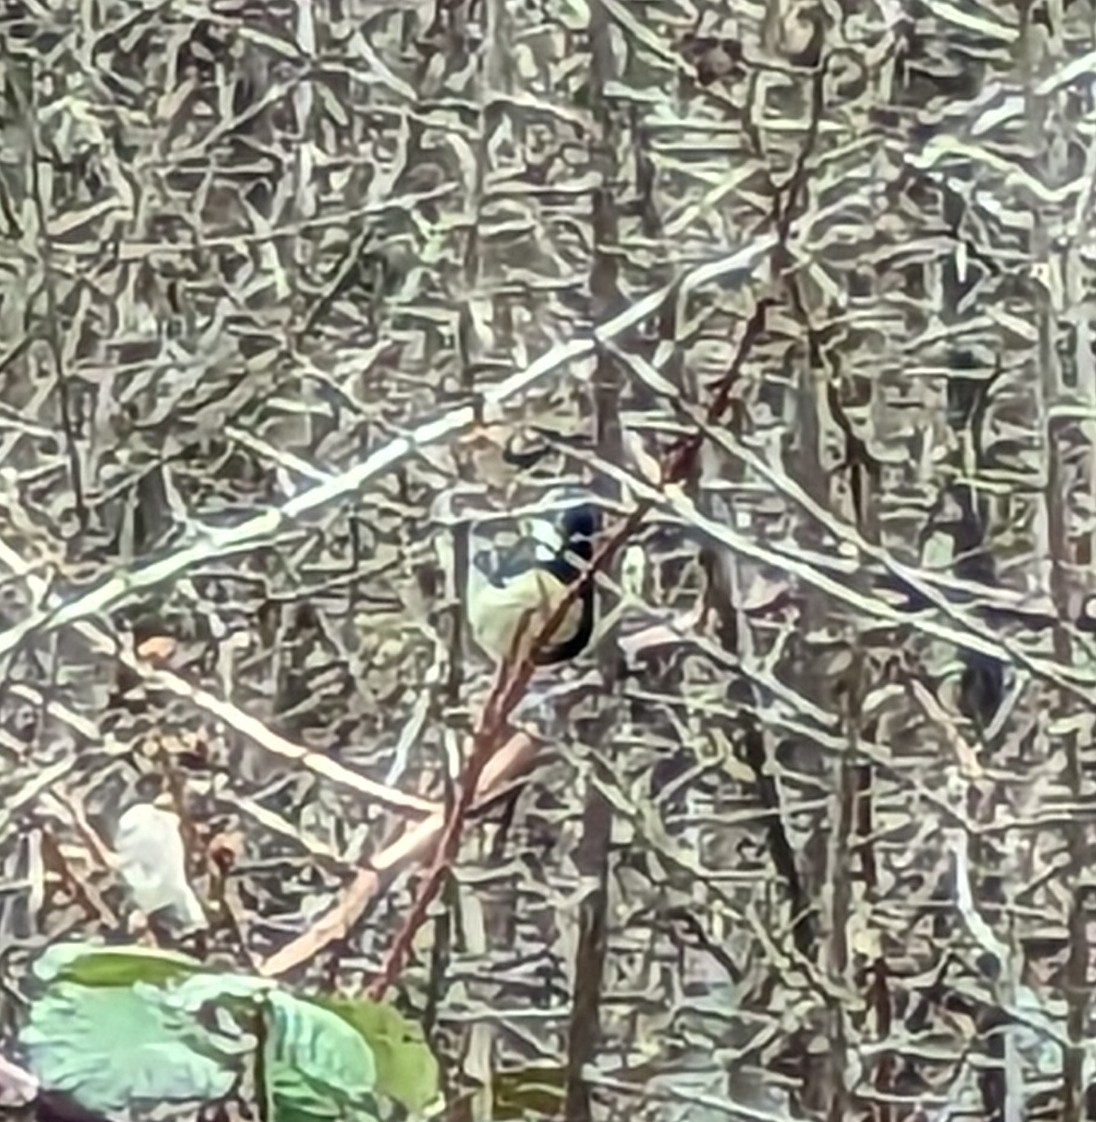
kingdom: Animalia
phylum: Chordata
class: Aves
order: Passeriformes
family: Paridae
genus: Parus
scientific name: Parus major
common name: Great tit
